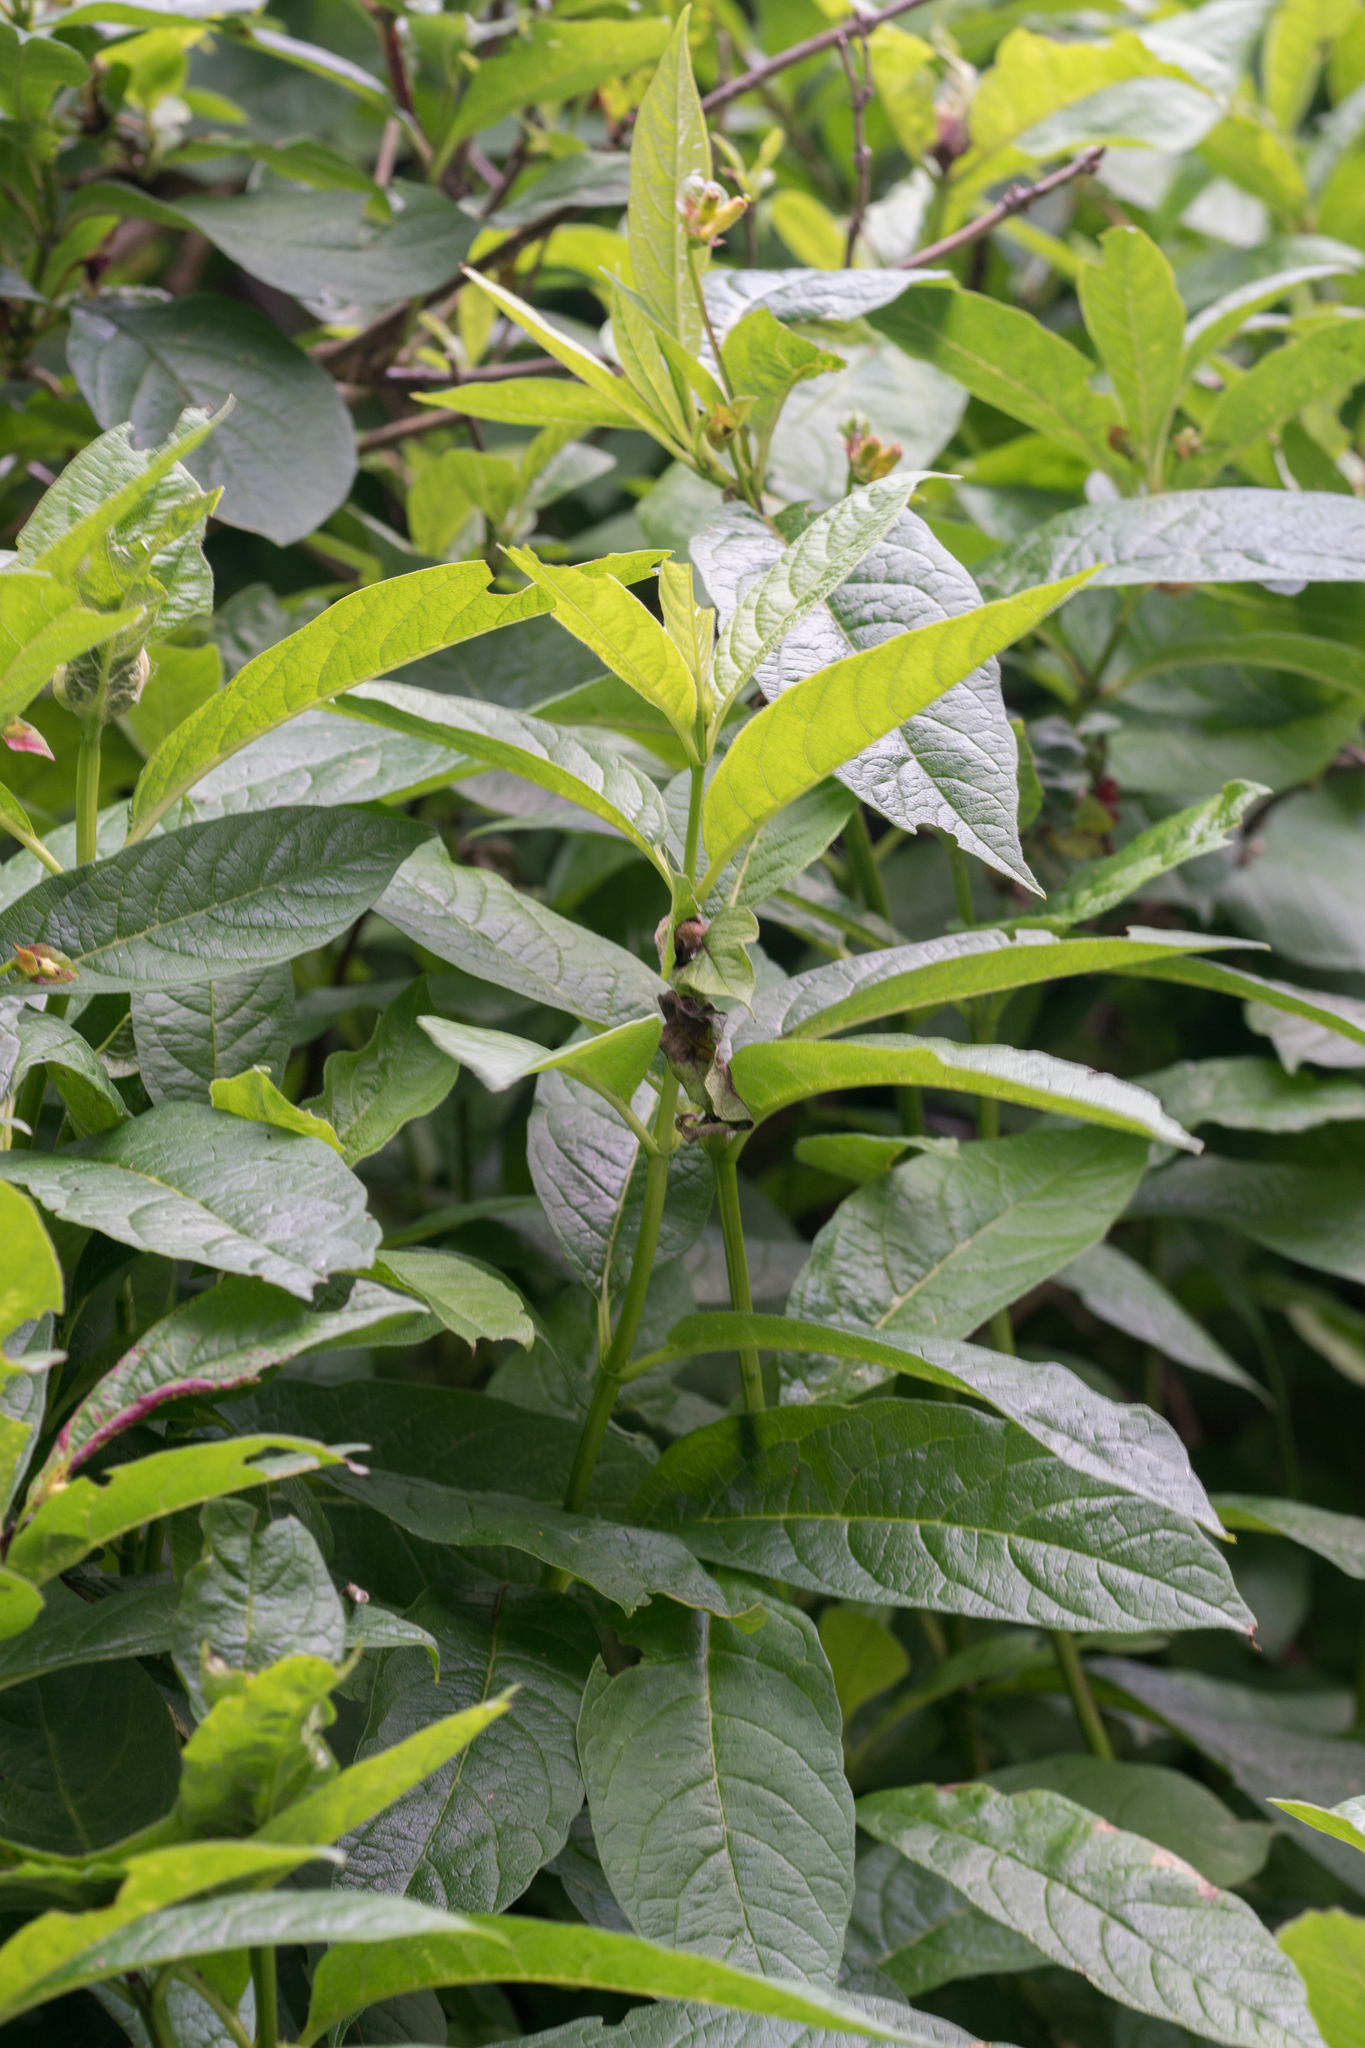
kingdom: Plantae
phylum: Tracheophyta
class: Magnoliopsida
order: Dipsacales
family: Caprifoliaceae
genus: Lonicera
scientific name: Lonicera involucrata
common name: Californian honeysuckle
